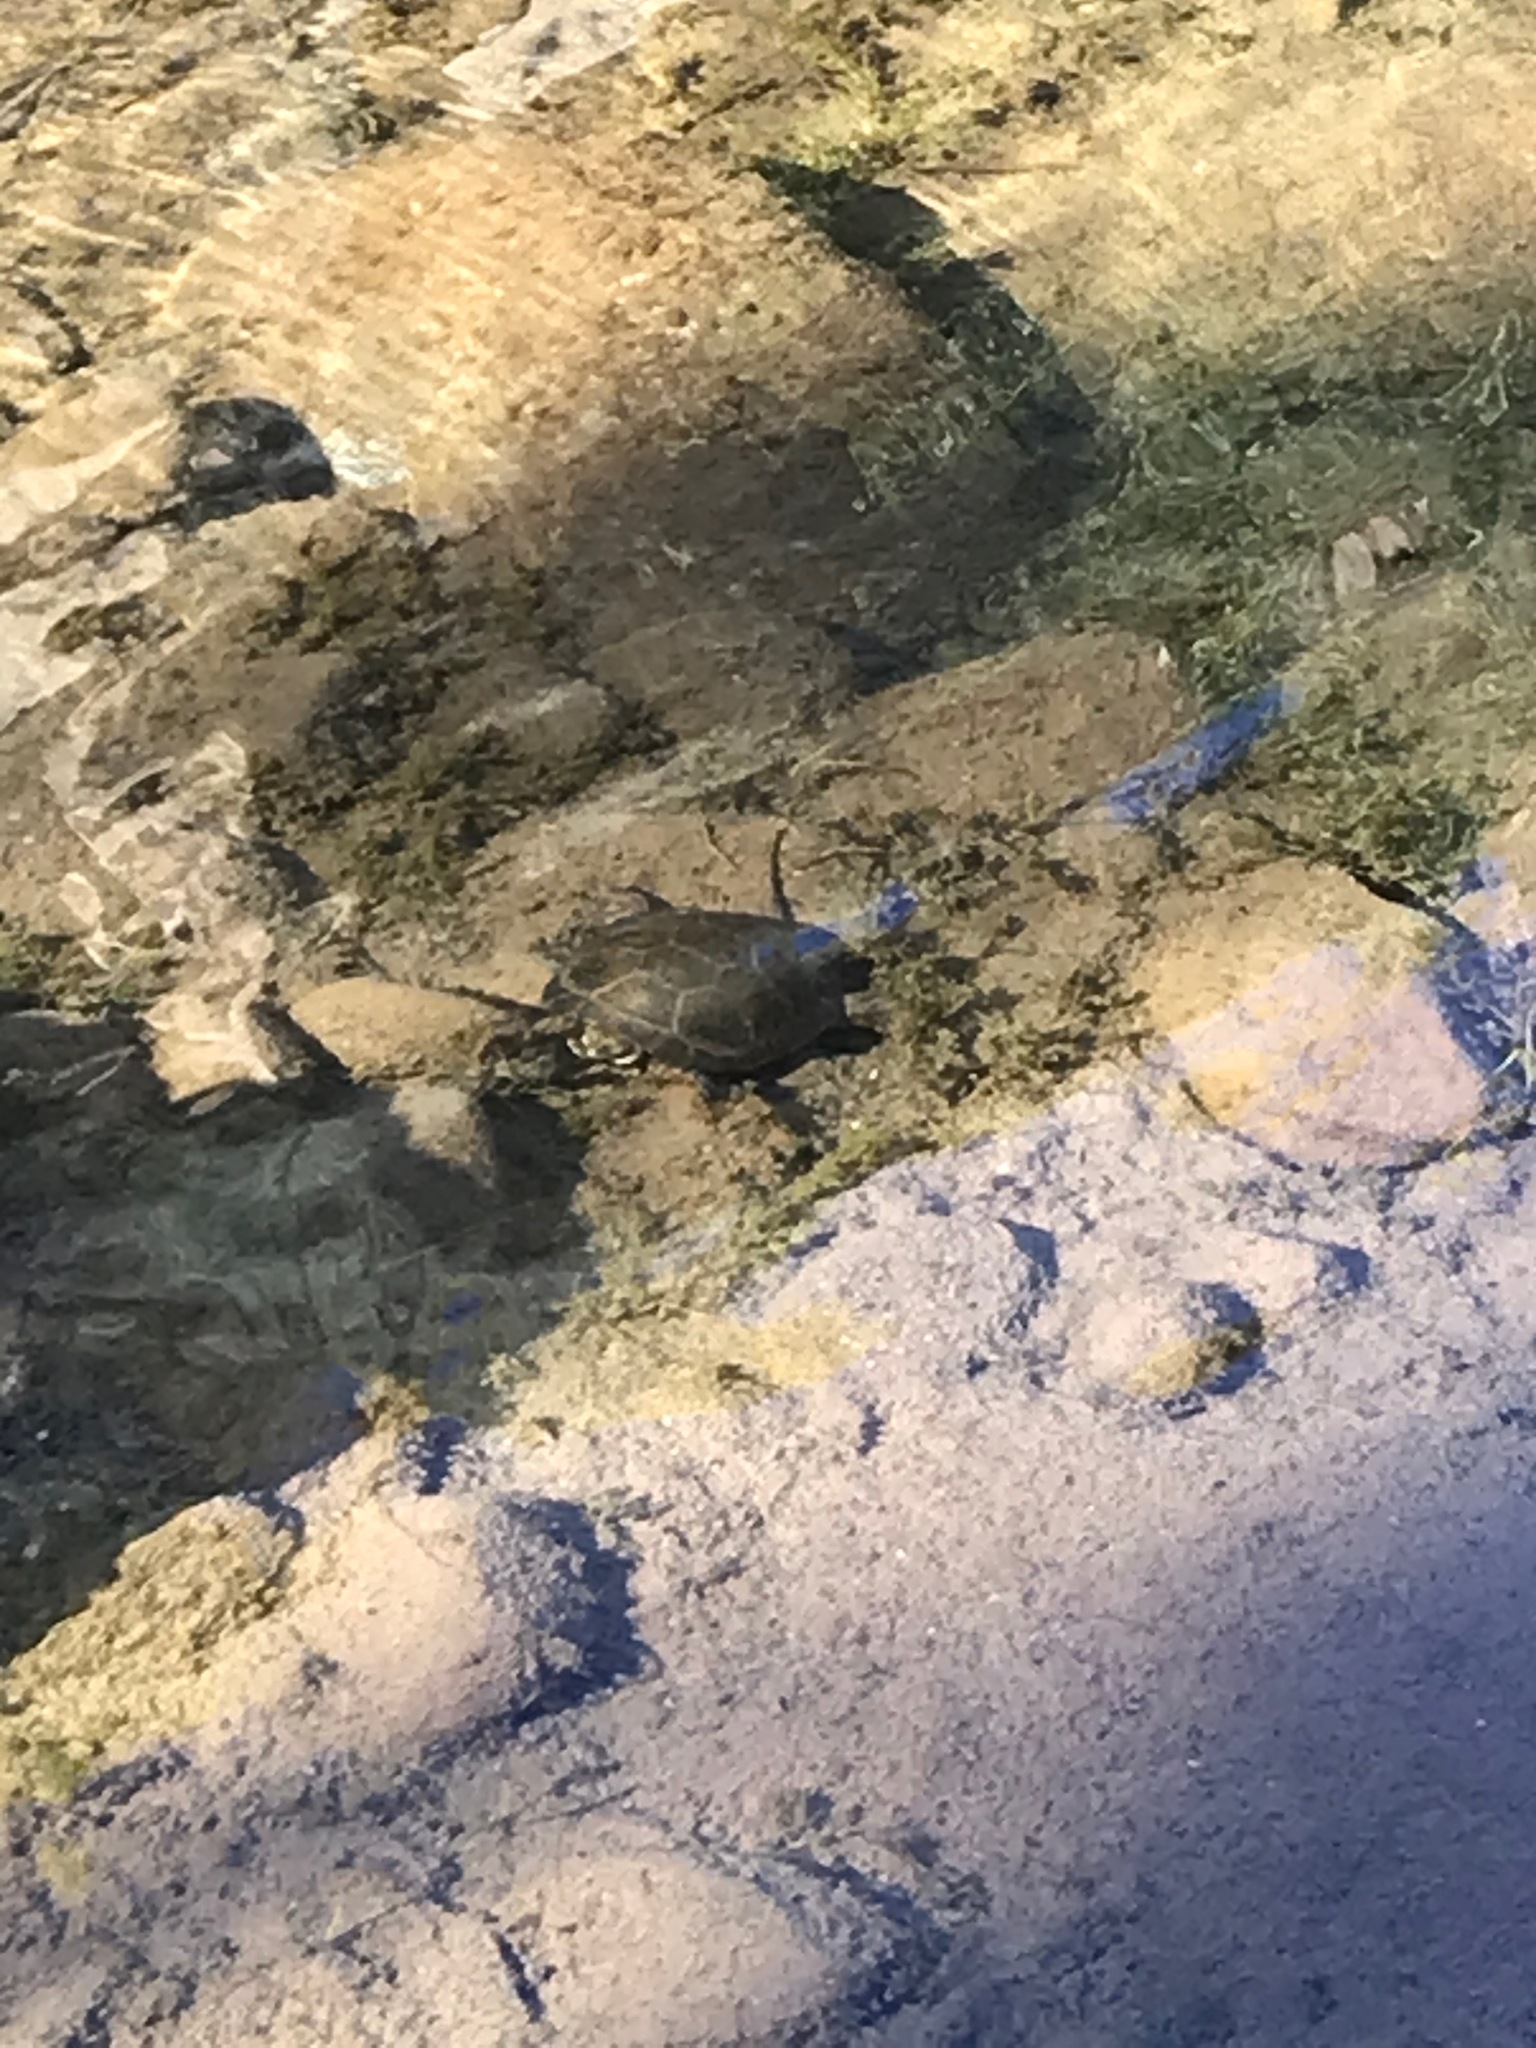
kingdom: Animalia
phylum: Chordata
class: Testudines
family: Emydidae
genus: Actinemys
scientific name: Actinemys pallida
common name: Southern pacific pond turtle
